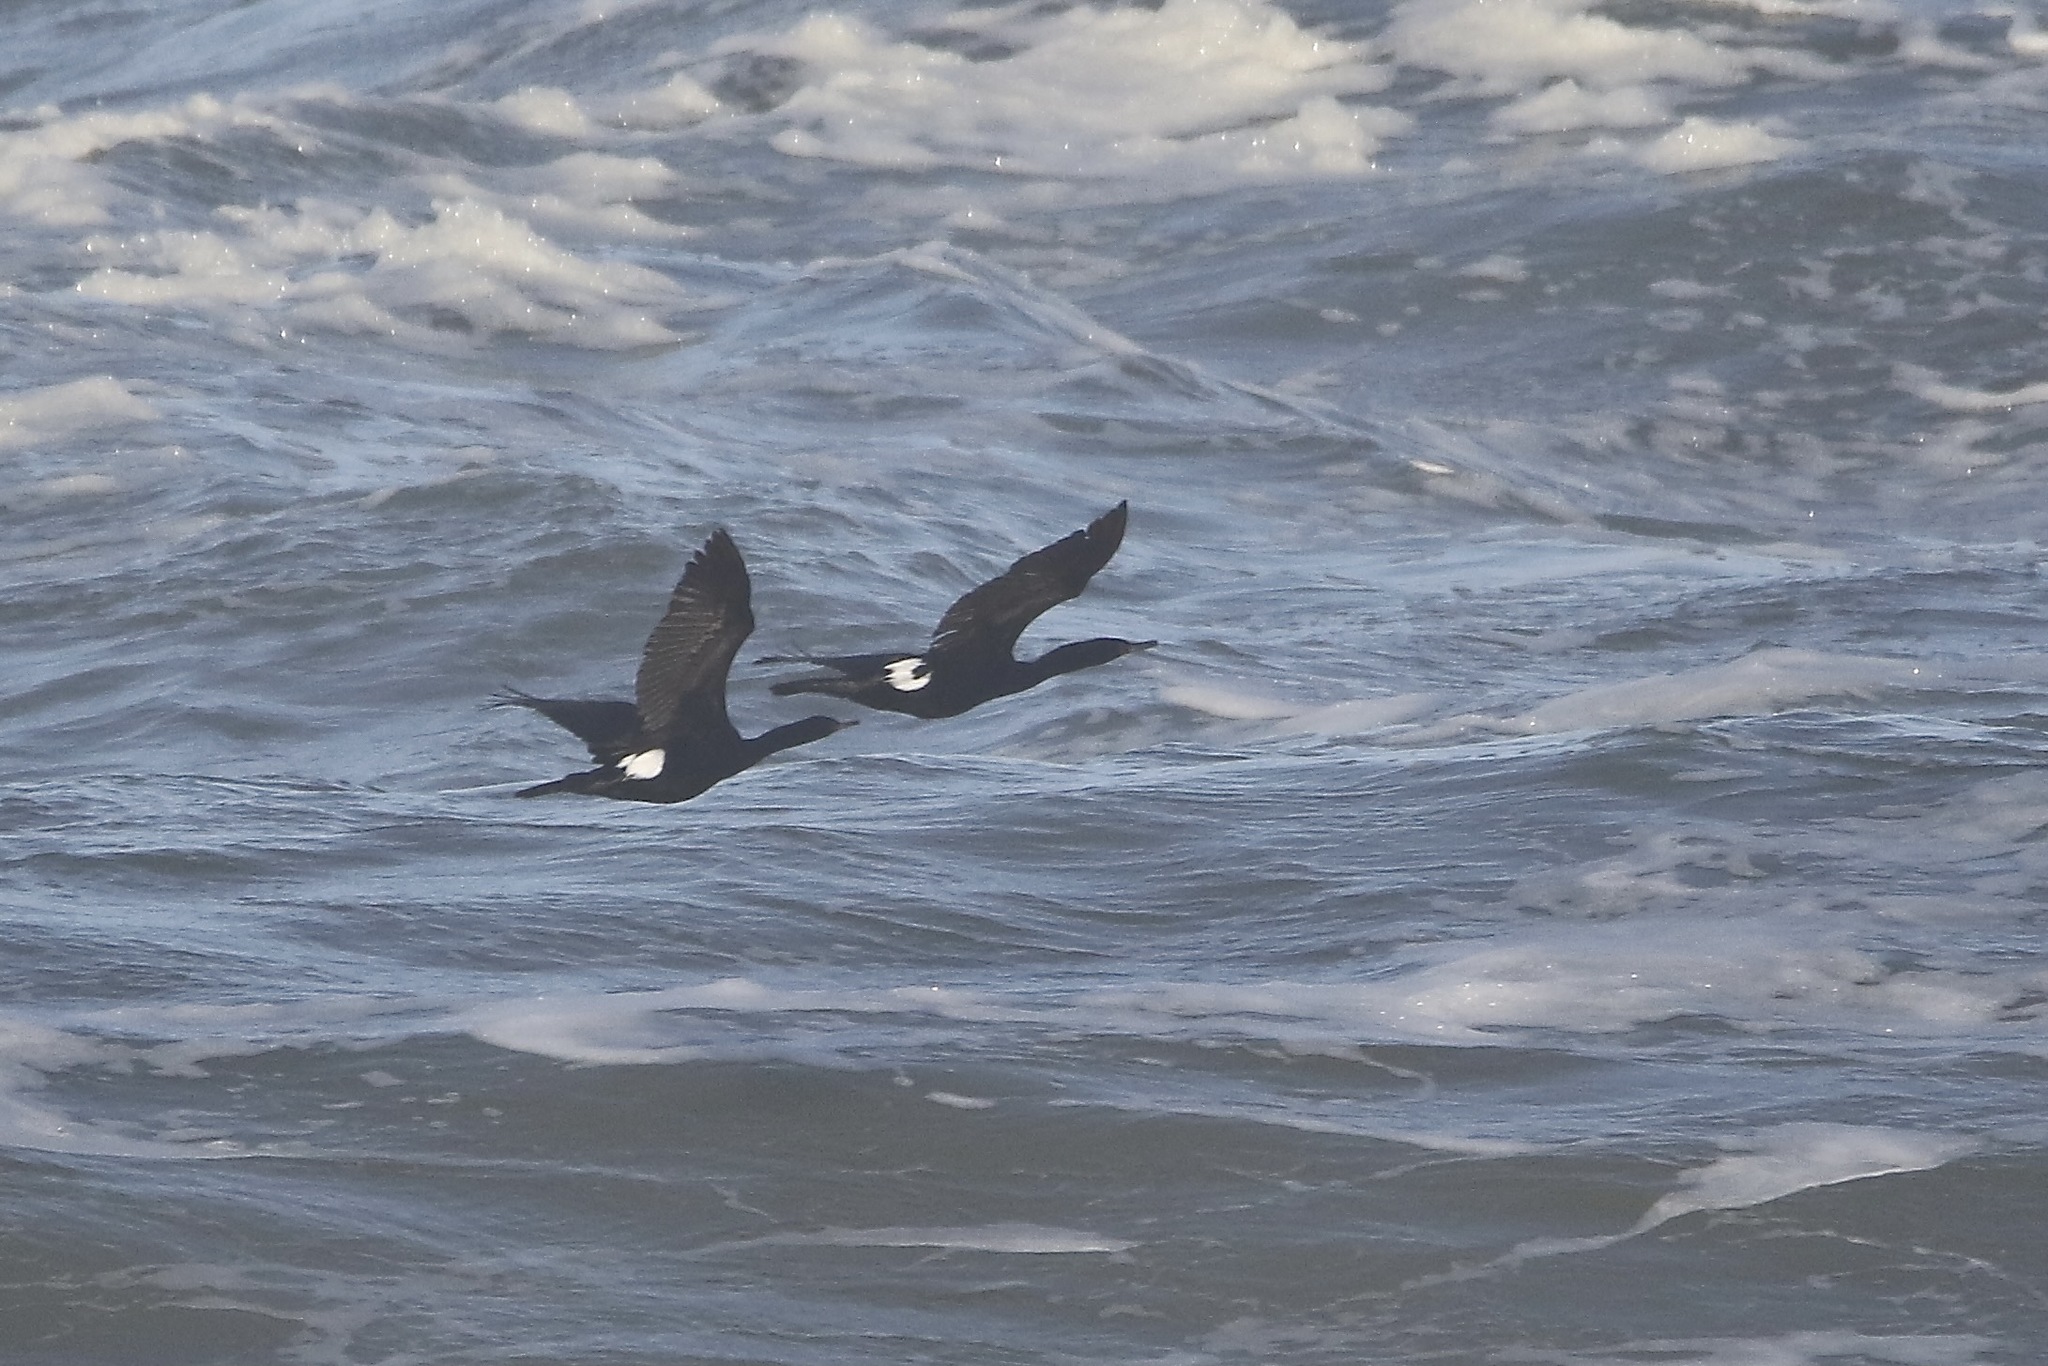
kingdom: Animalia
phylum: Chordata
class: Aves
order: Suliformes
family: Phalacrocoracidae
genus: Phalacrocorax
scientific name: Phalacrocorax pelagicus
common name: Pelagic cormorant
